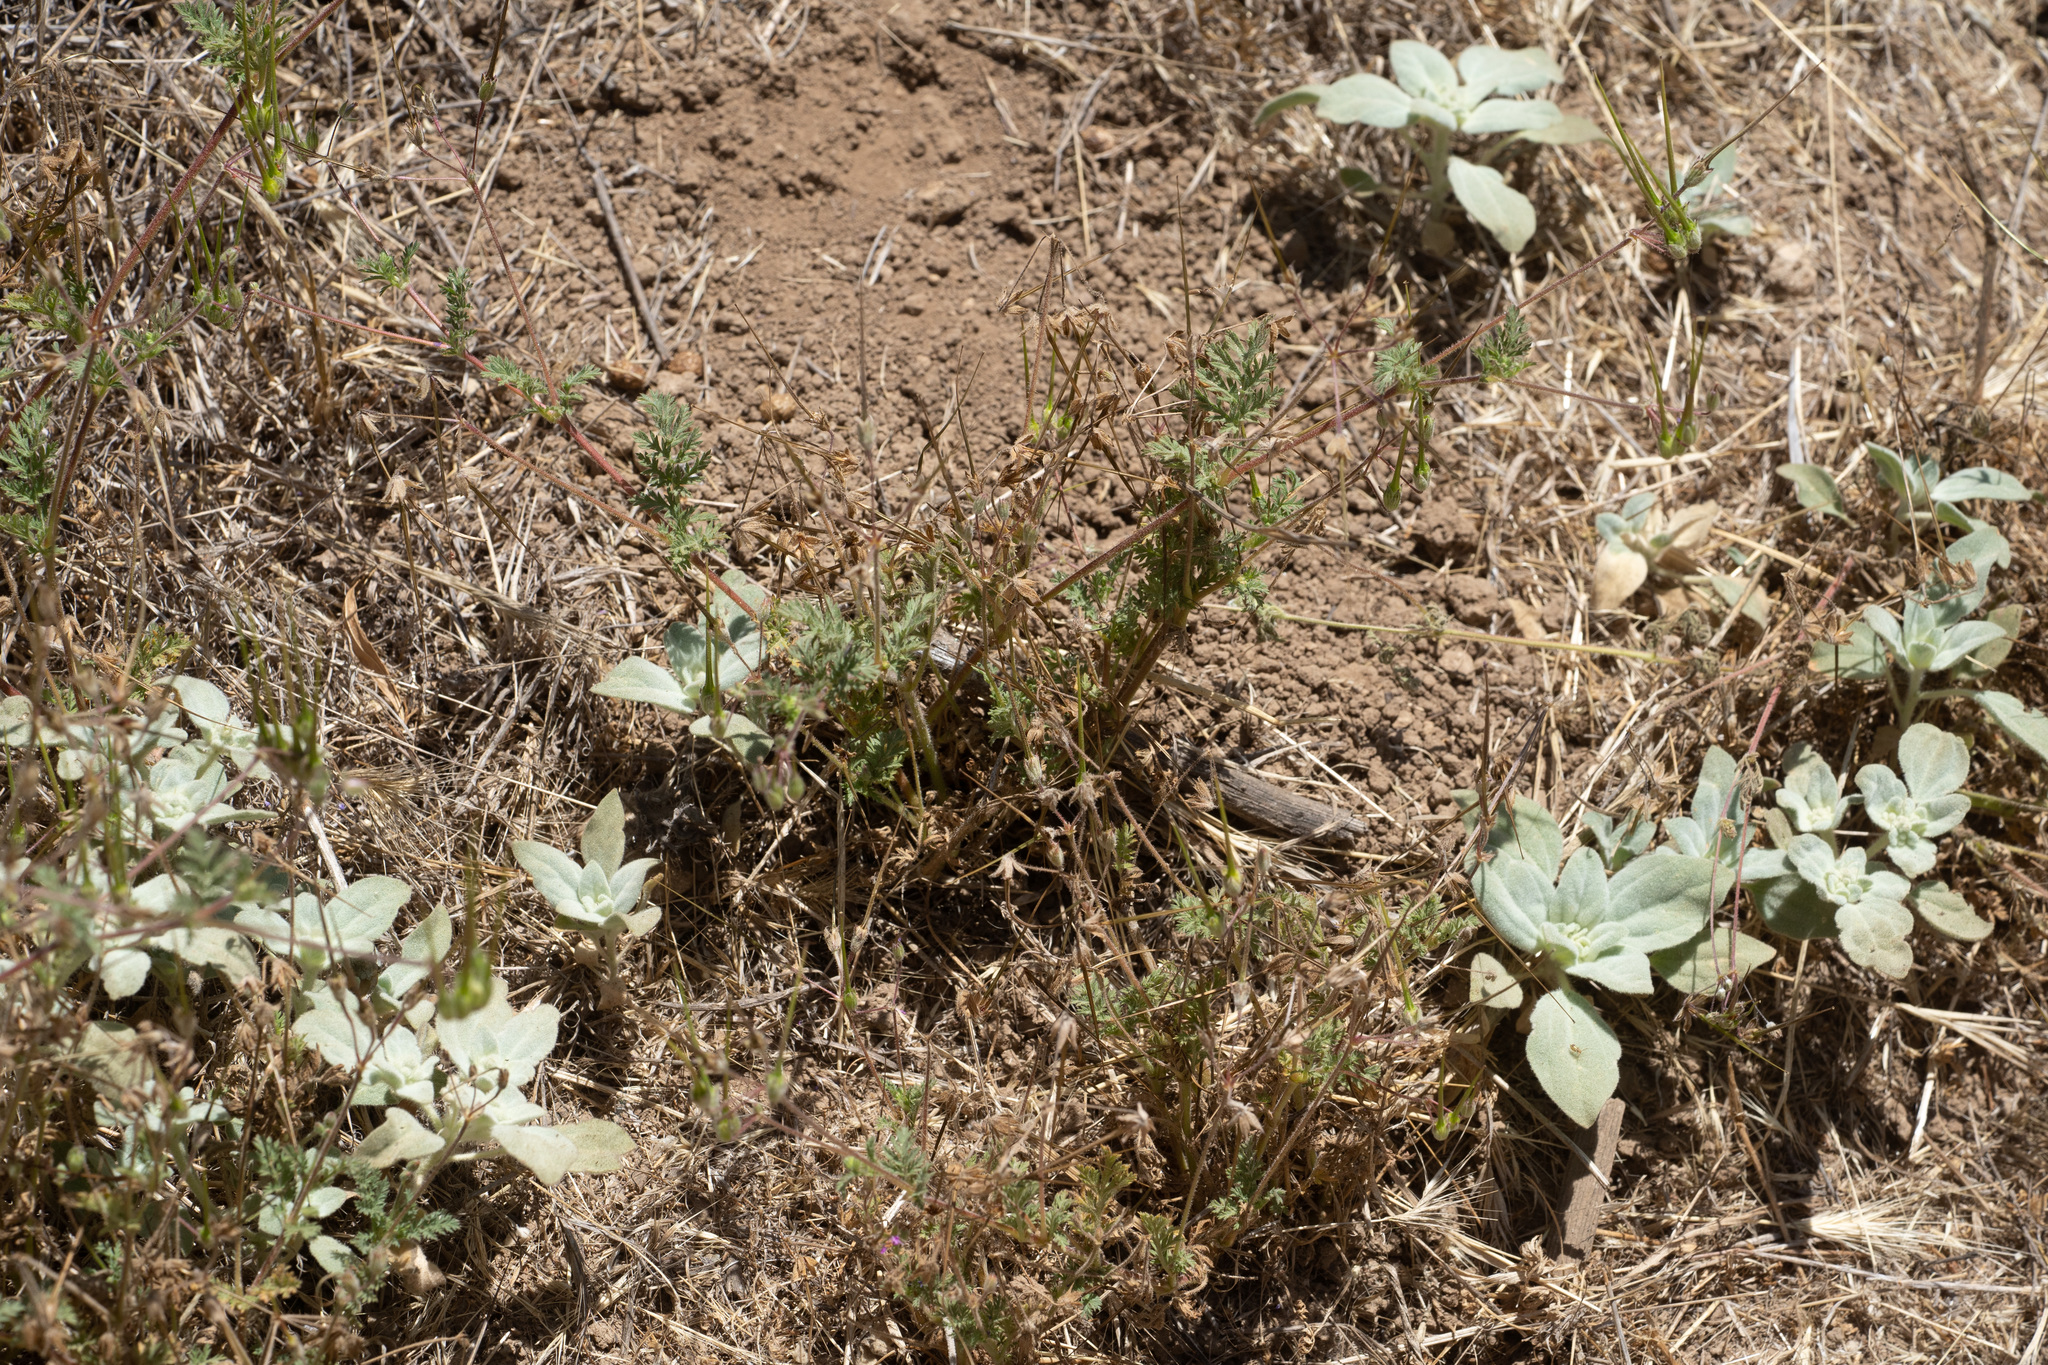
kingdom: Plantae
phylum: Tracheophyta
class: Magnoliopsida
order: Geraniales
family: Geraniaceae
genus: Erodium
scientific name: Erodium cicutarium
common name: Common stork's-bill
